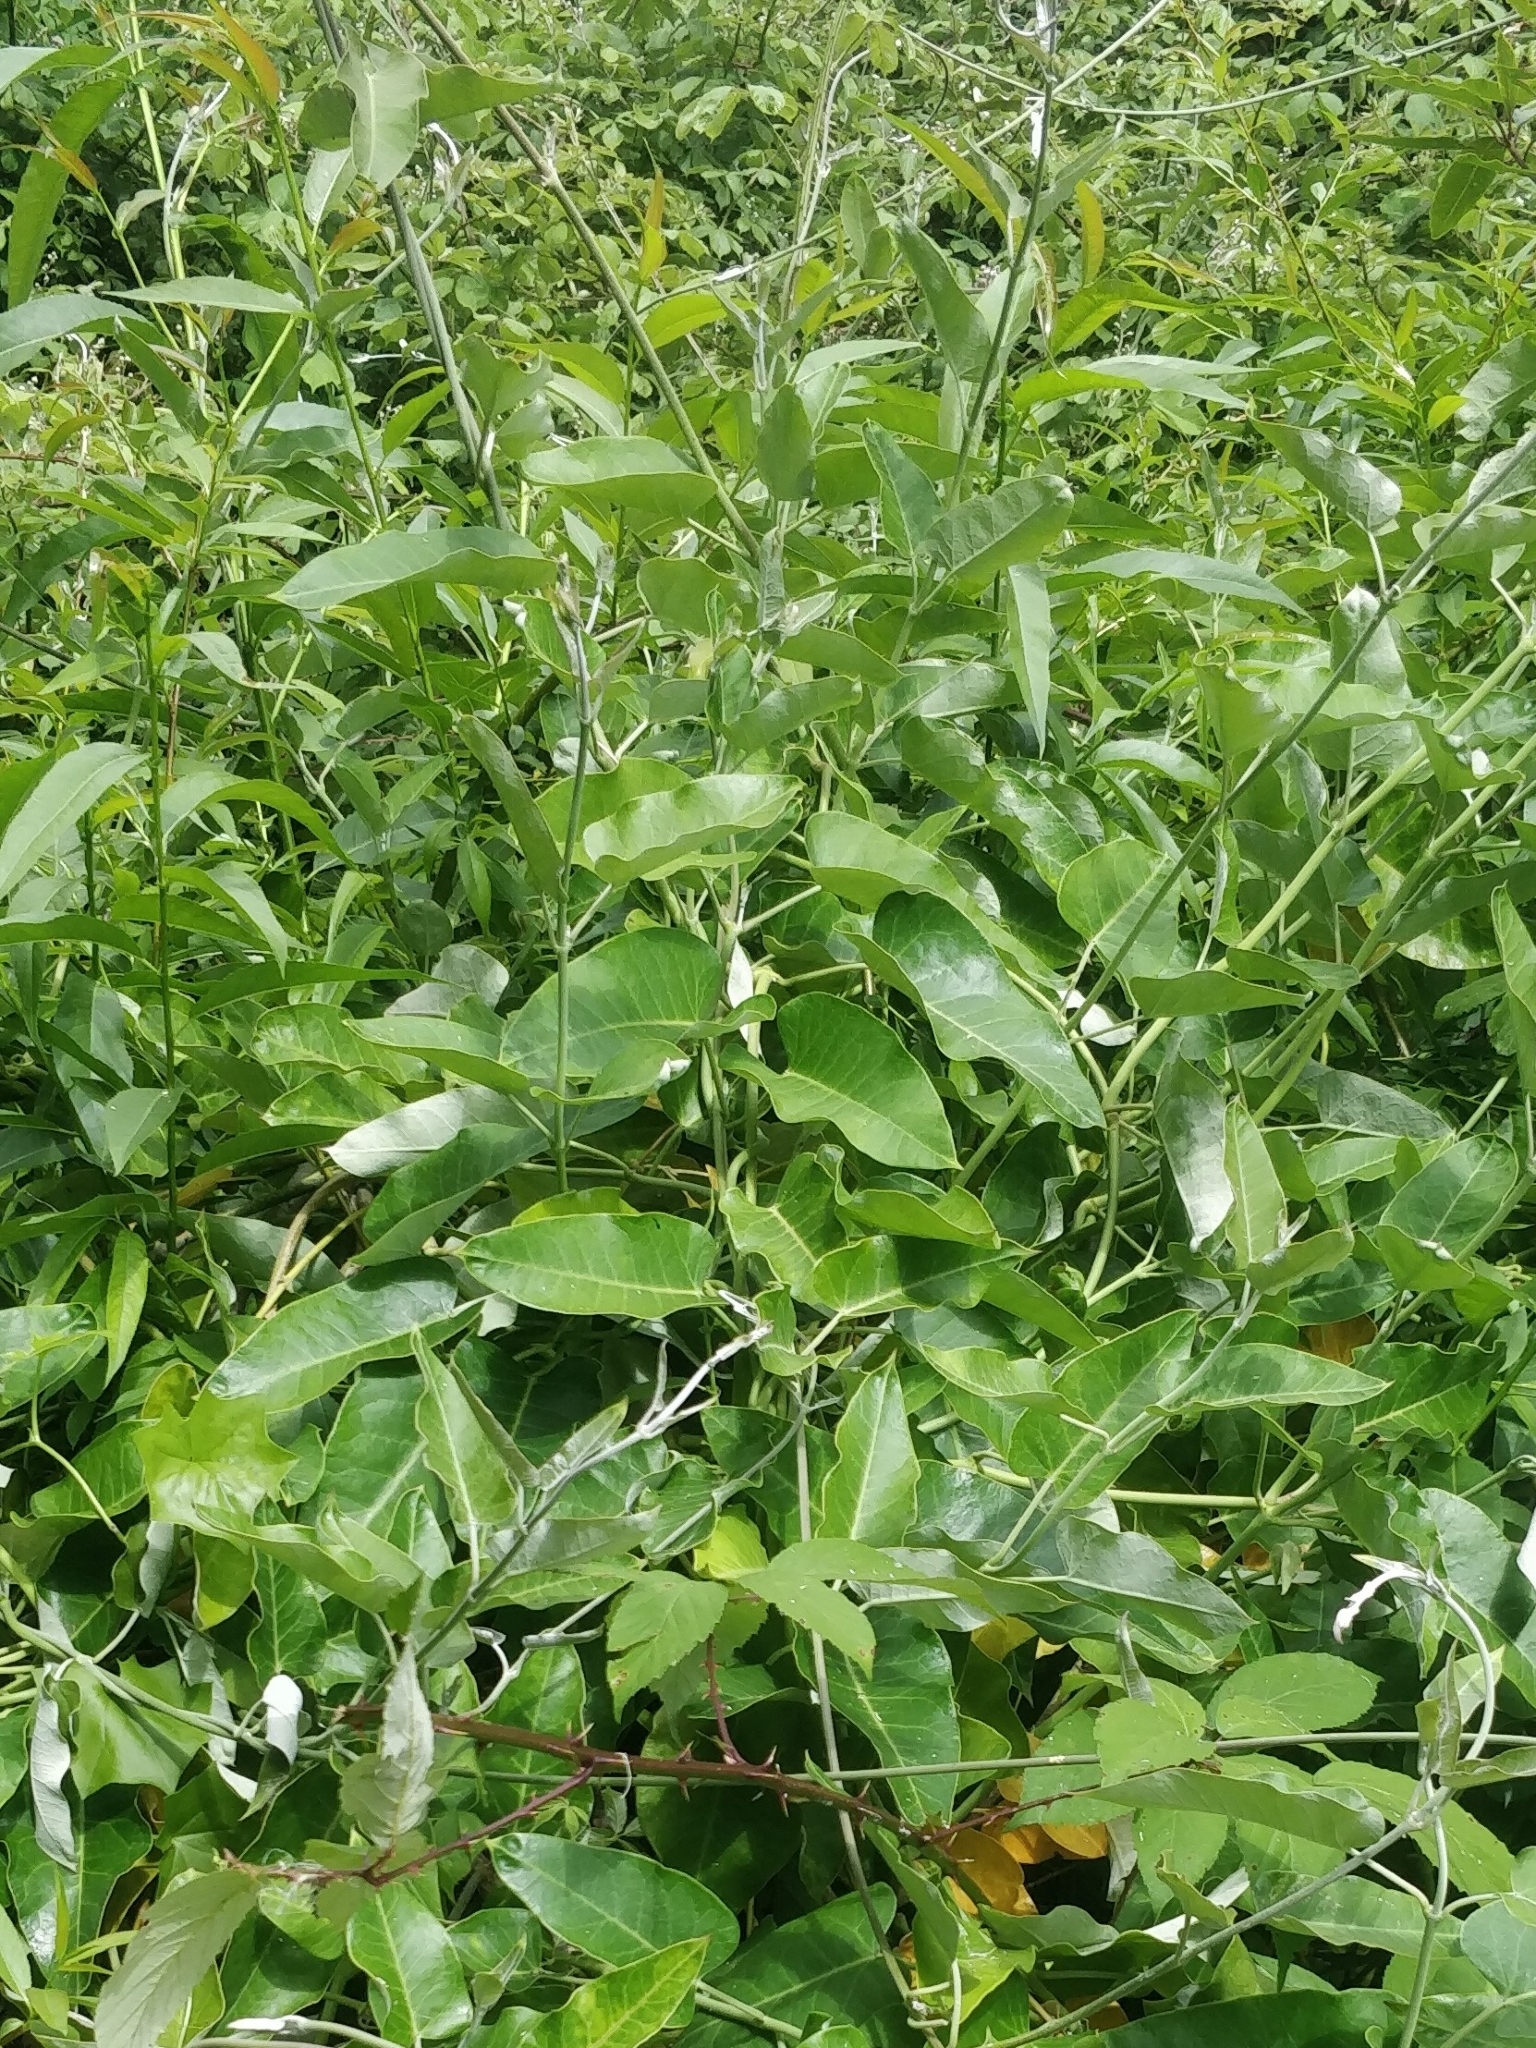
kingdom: Plantae
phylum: Tracheophyta
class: Magnoliopsida
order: Gentianales
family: Apocynaceae
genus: Araujia
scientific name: Araujia sericifera
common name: White bladderflower
